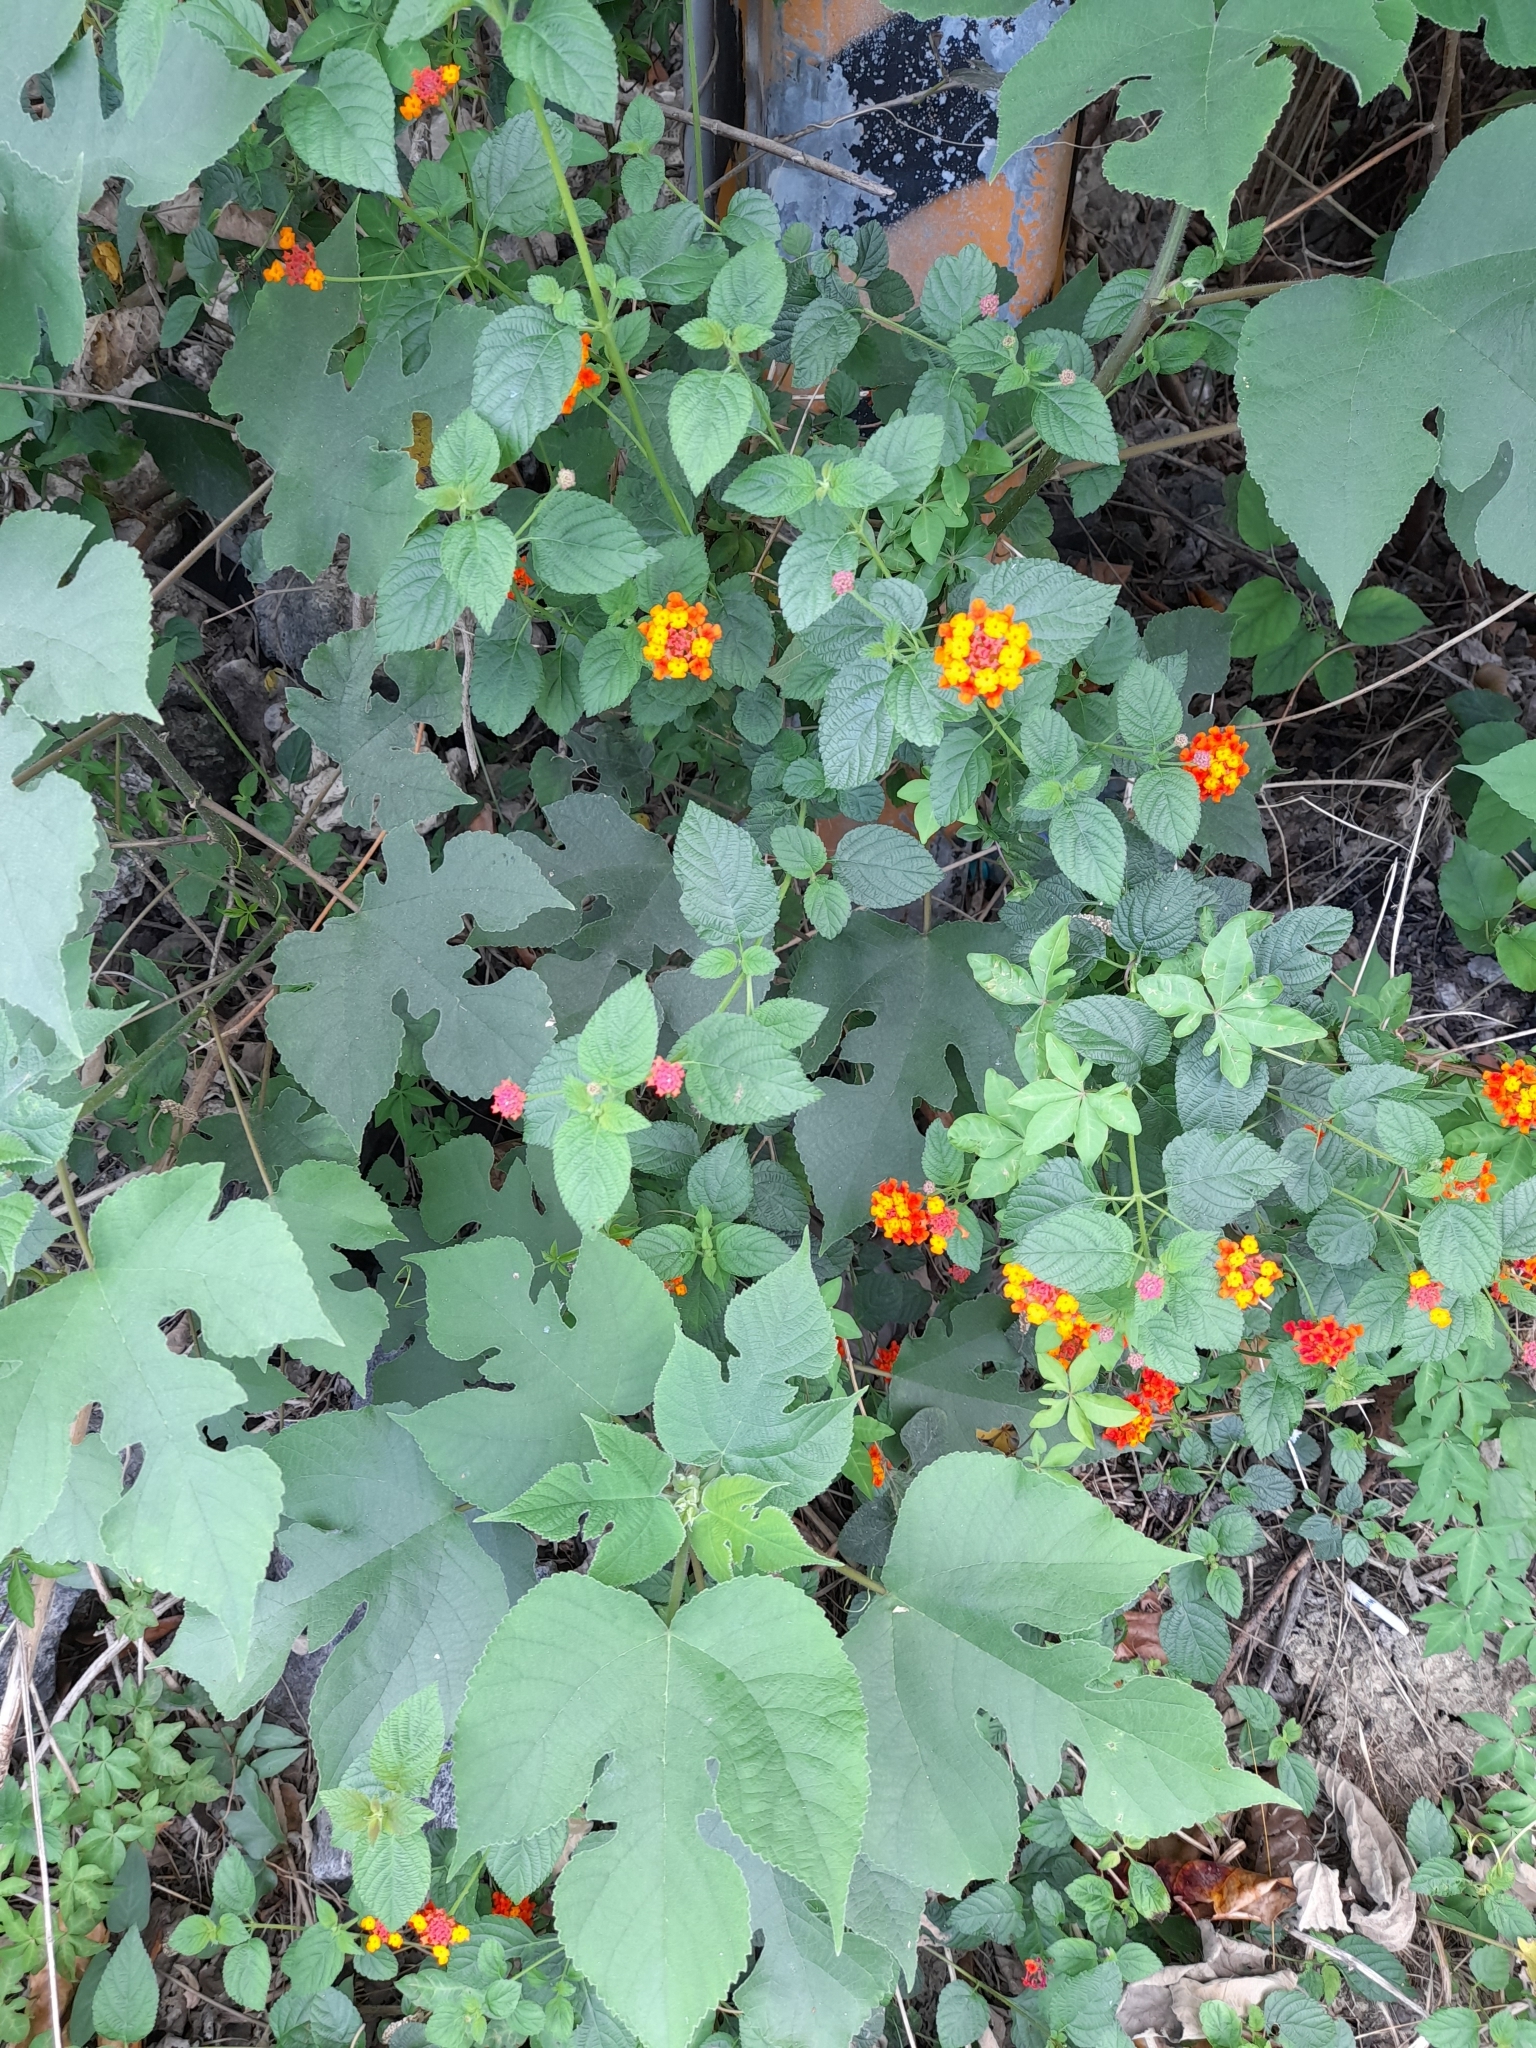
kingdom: Plantae
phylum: Tracheophyta
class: Magnoliopsida
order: Lamiales
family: Verbenaceae
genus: Lantana
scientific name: Lantana camara
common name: Lantana
